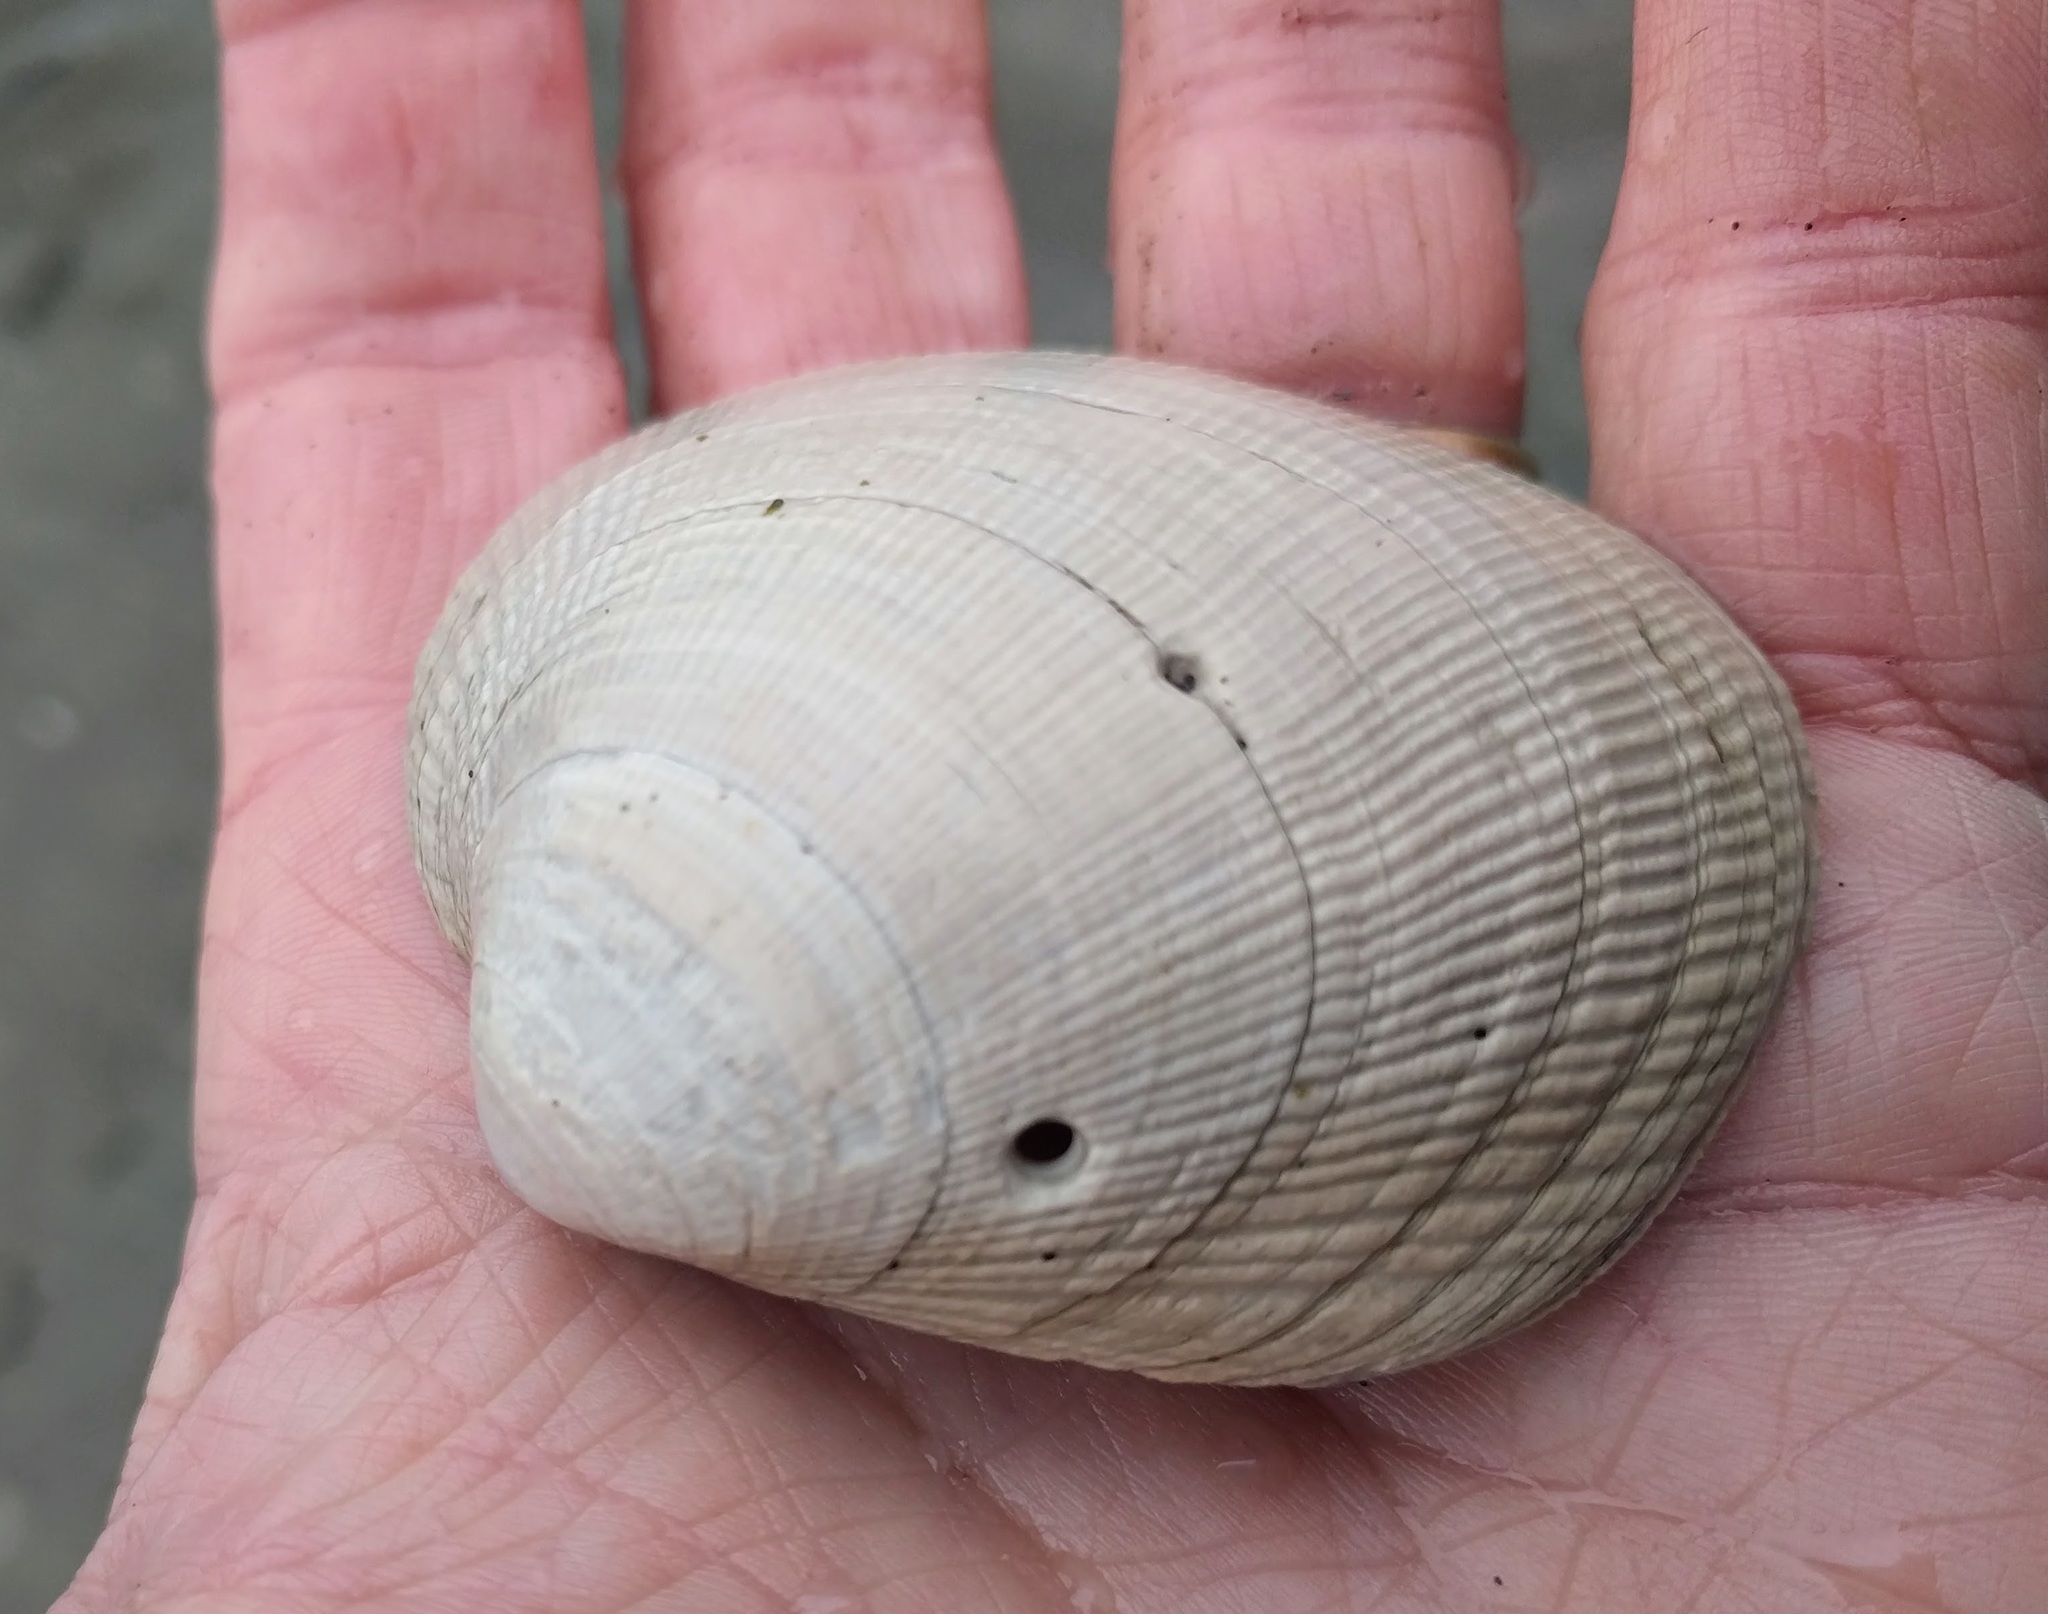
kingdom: Animalia
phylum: Mollusca
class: Bivalvia
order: Venerida
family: Veneridae
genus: Leukoma
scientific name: Leukoma staminea
